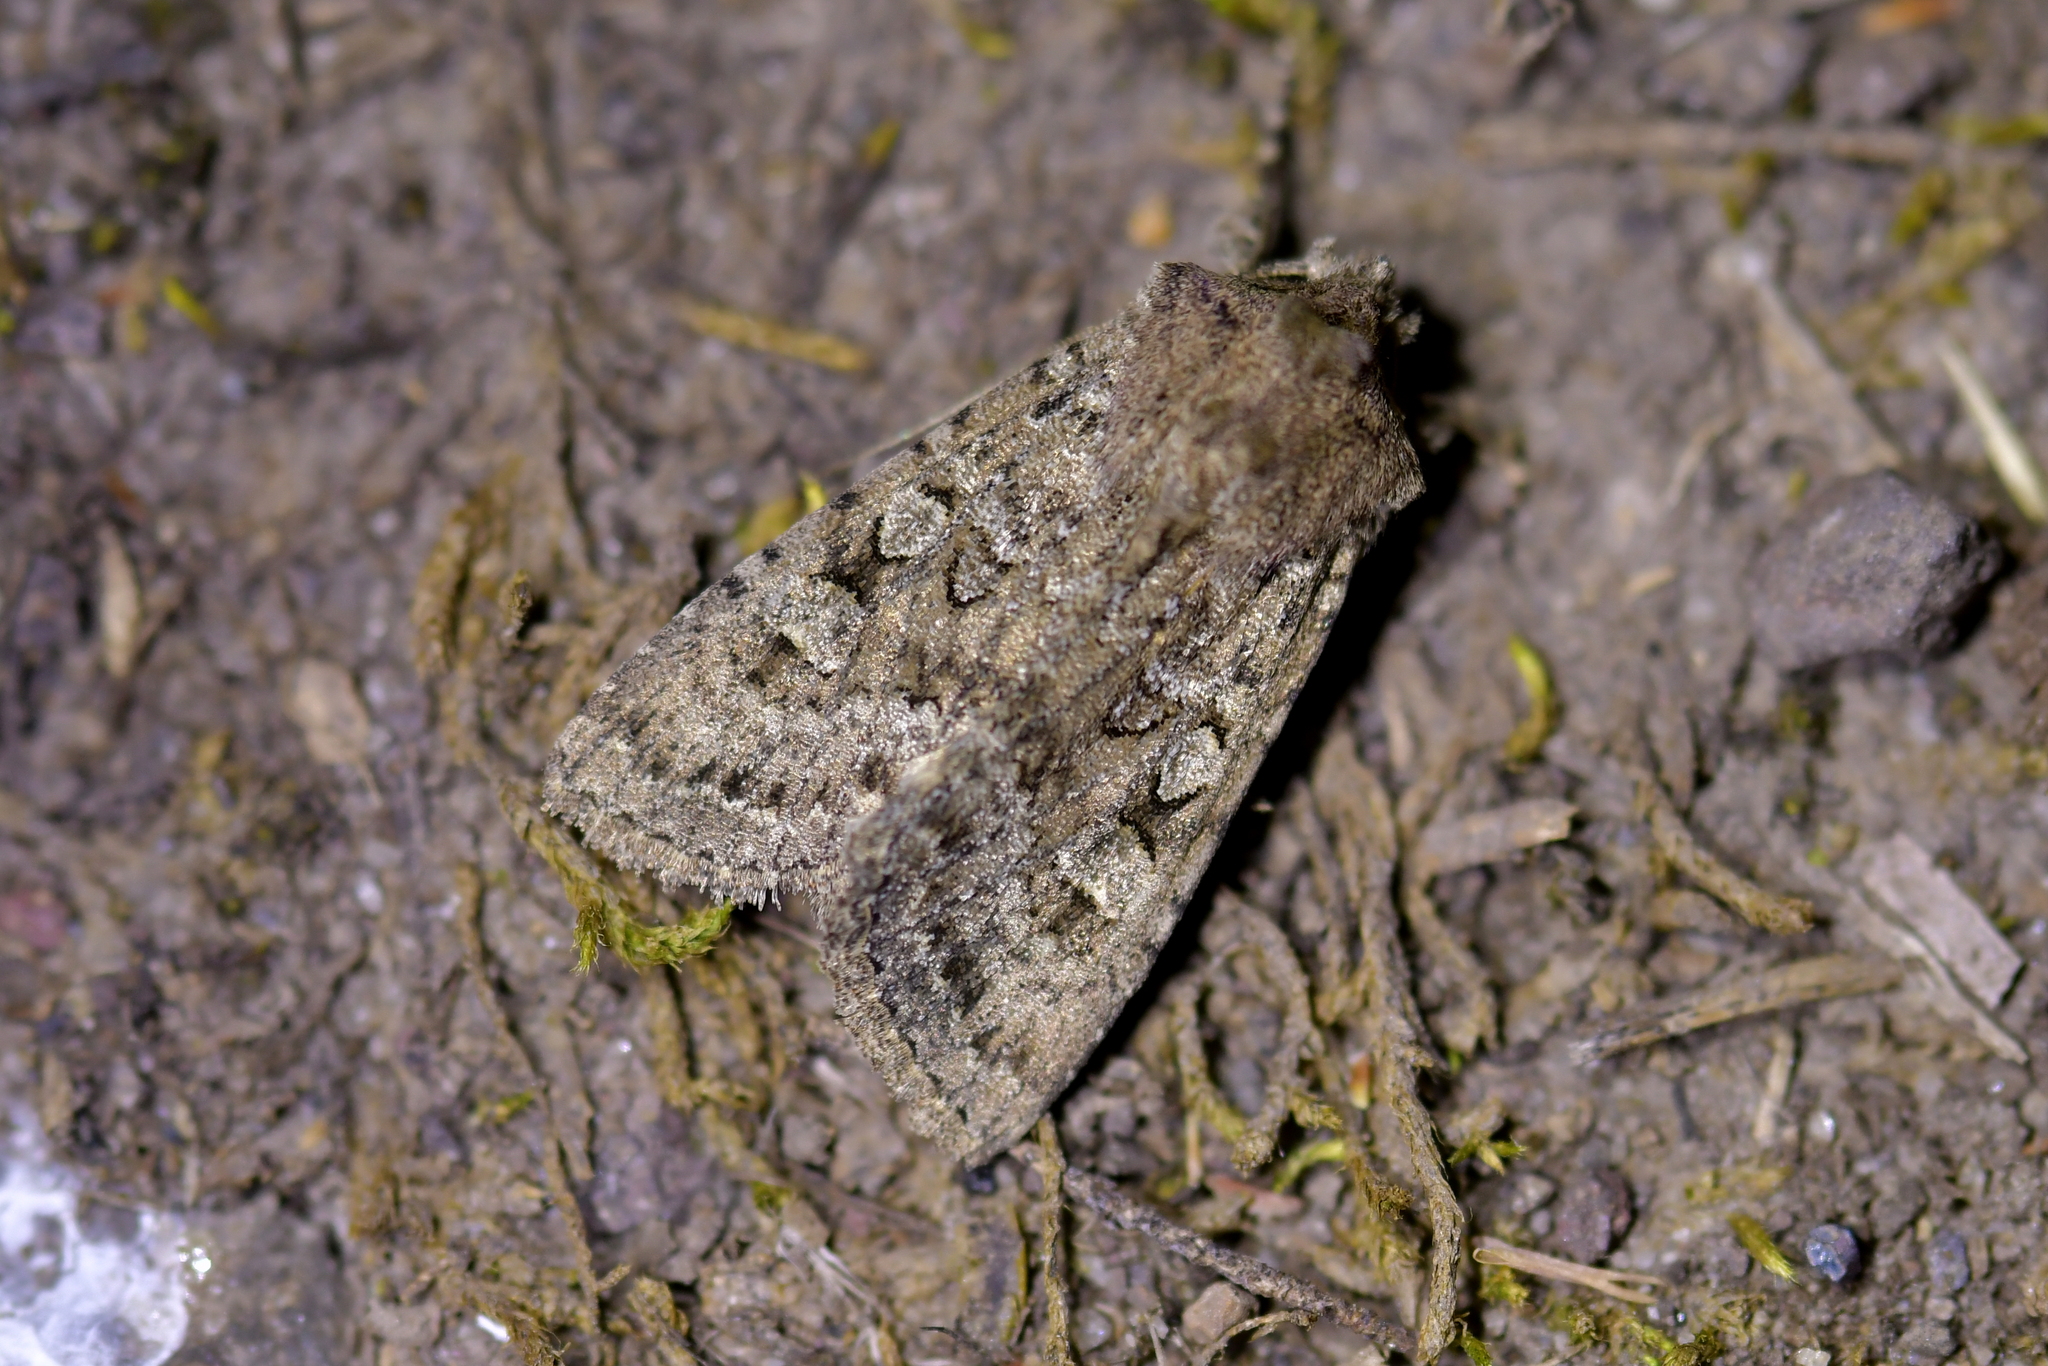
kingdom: Animalia
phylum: Arthropoda
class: Insecta
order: Lepidoptera
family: Noctuidae
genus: Ichneutica
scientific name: Ichneutica barbara
